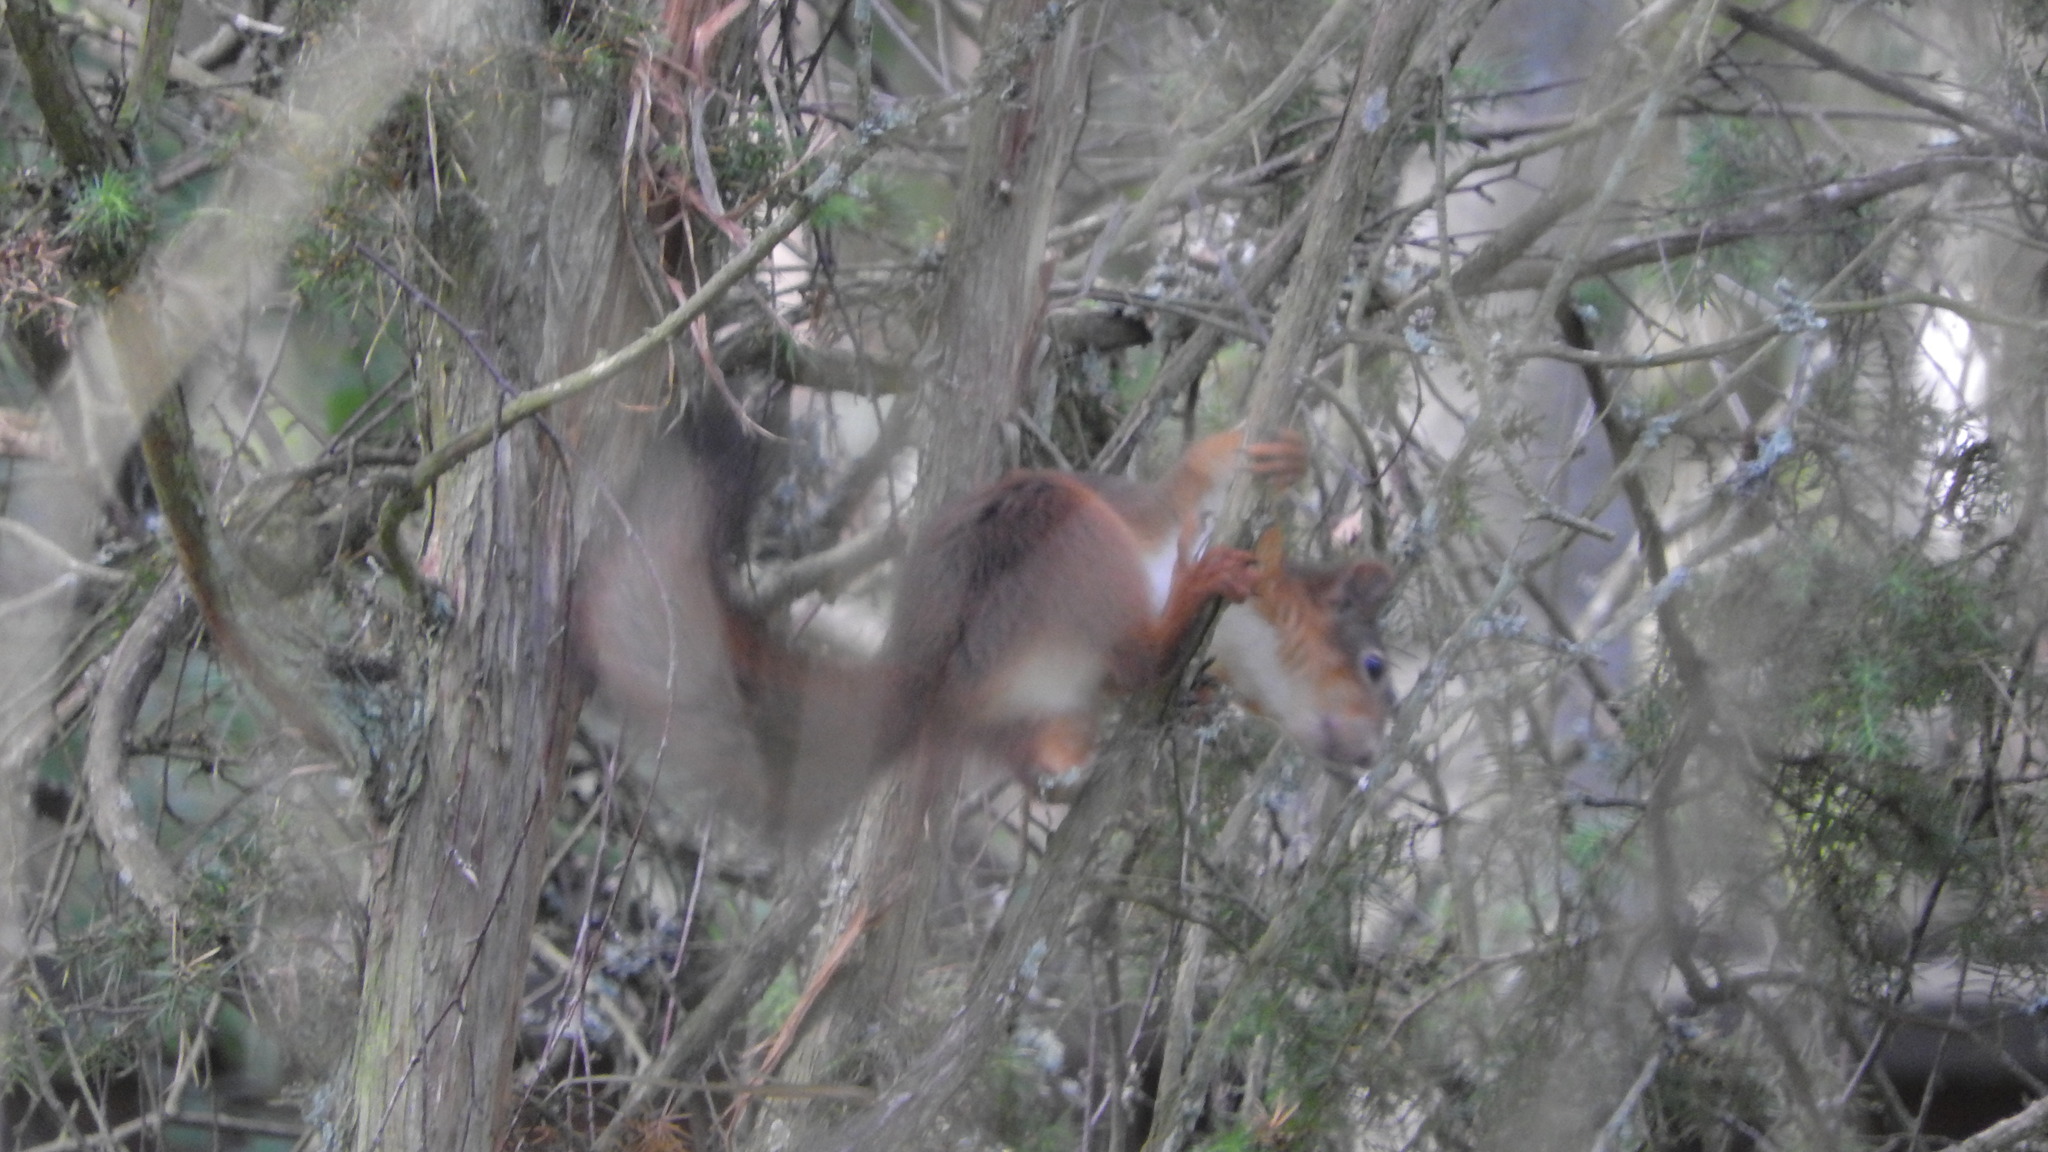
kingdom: Animalia
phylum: Chordata
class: Mammalia
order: Rodentia
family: Sciuridae
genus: Sciurus
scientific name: Sciurus vulgaris
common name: Eurasian red squirrel
